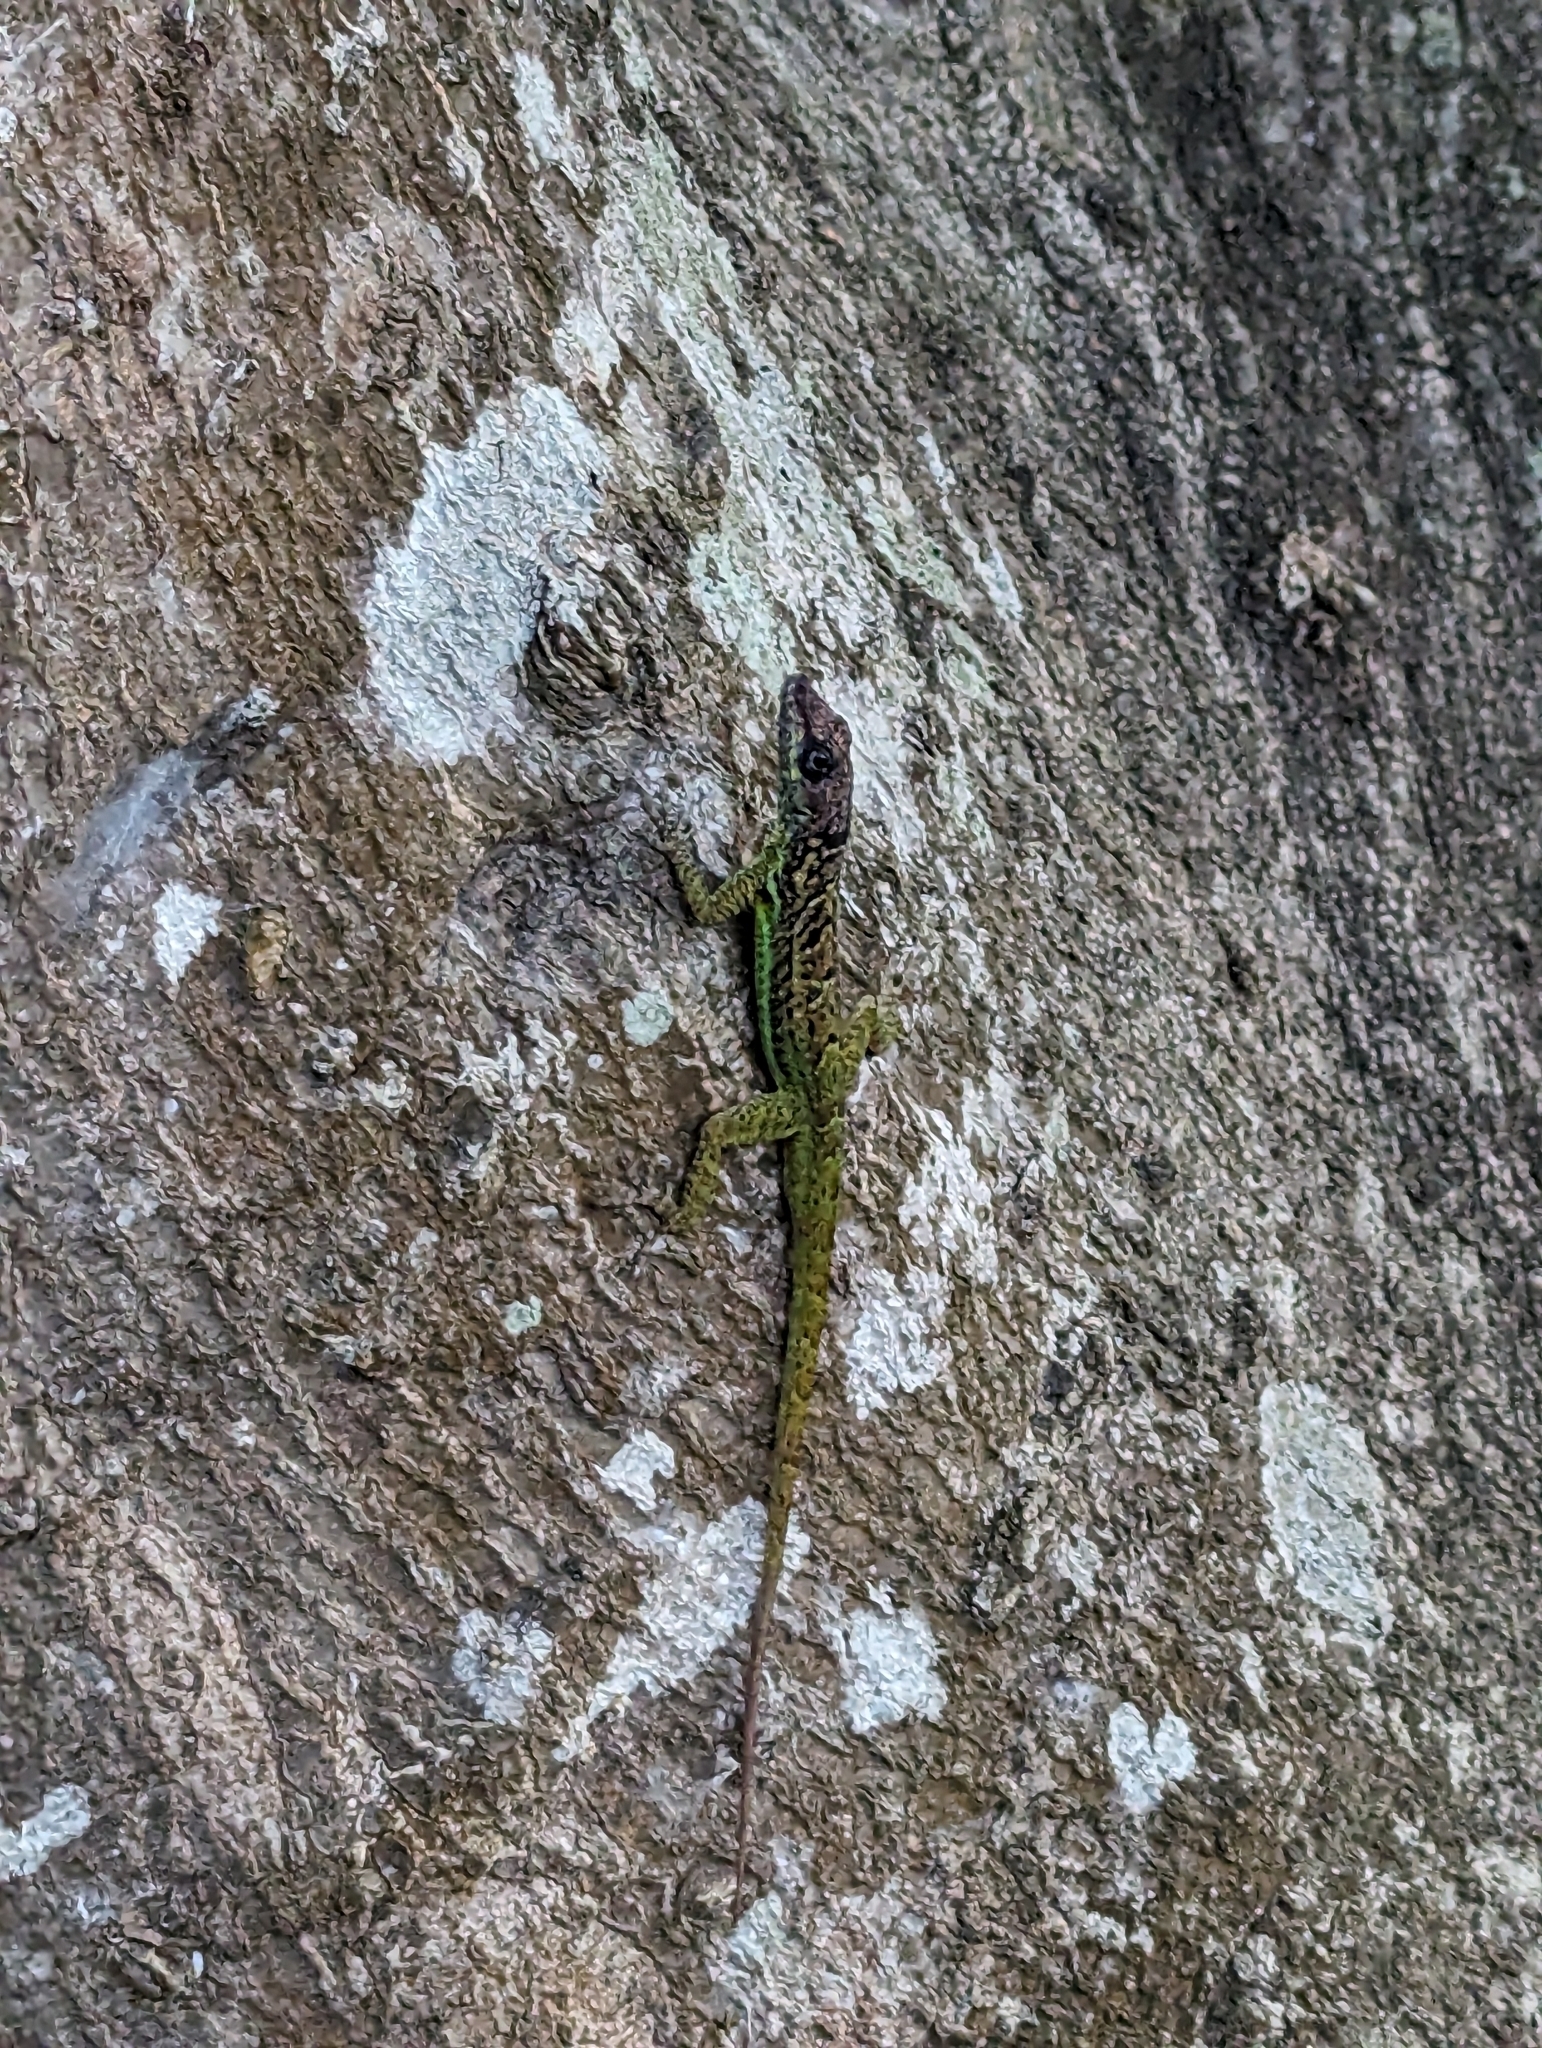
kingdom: Animalia
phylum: Chordata
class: Squamata
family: Dactyloidae
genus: Anolis
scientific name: Anolis extremus
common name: Barbados anole
